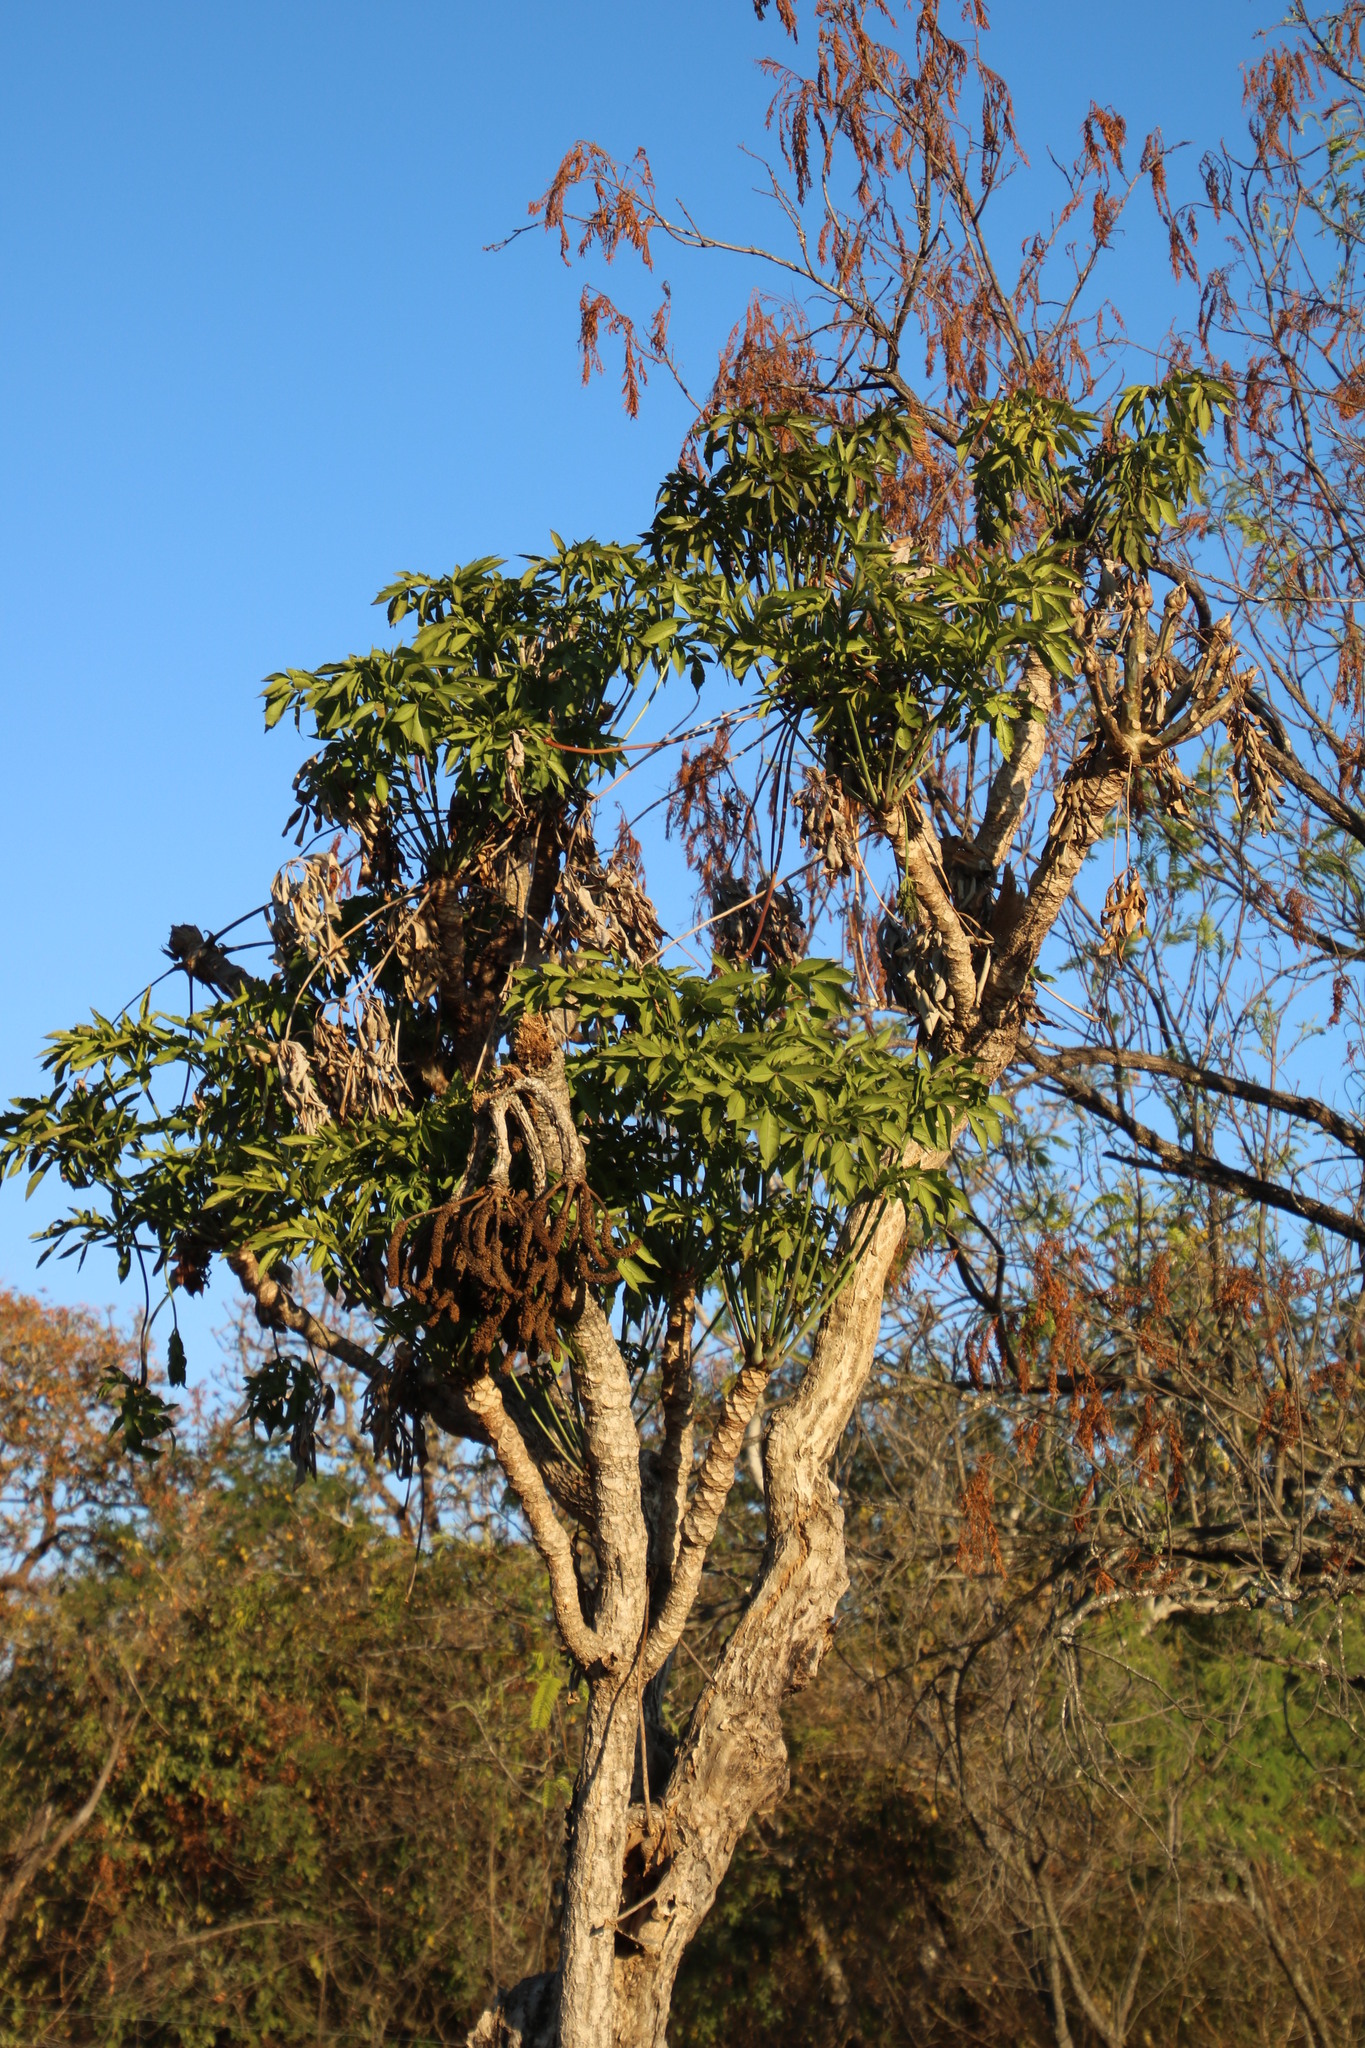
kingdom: Plantae
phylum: Tracheophyta
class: Magnoliopsida
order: Apiales
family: Araliaceae
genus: Cussonia
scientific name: Cussonia spicata
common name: Common cabbagetree
